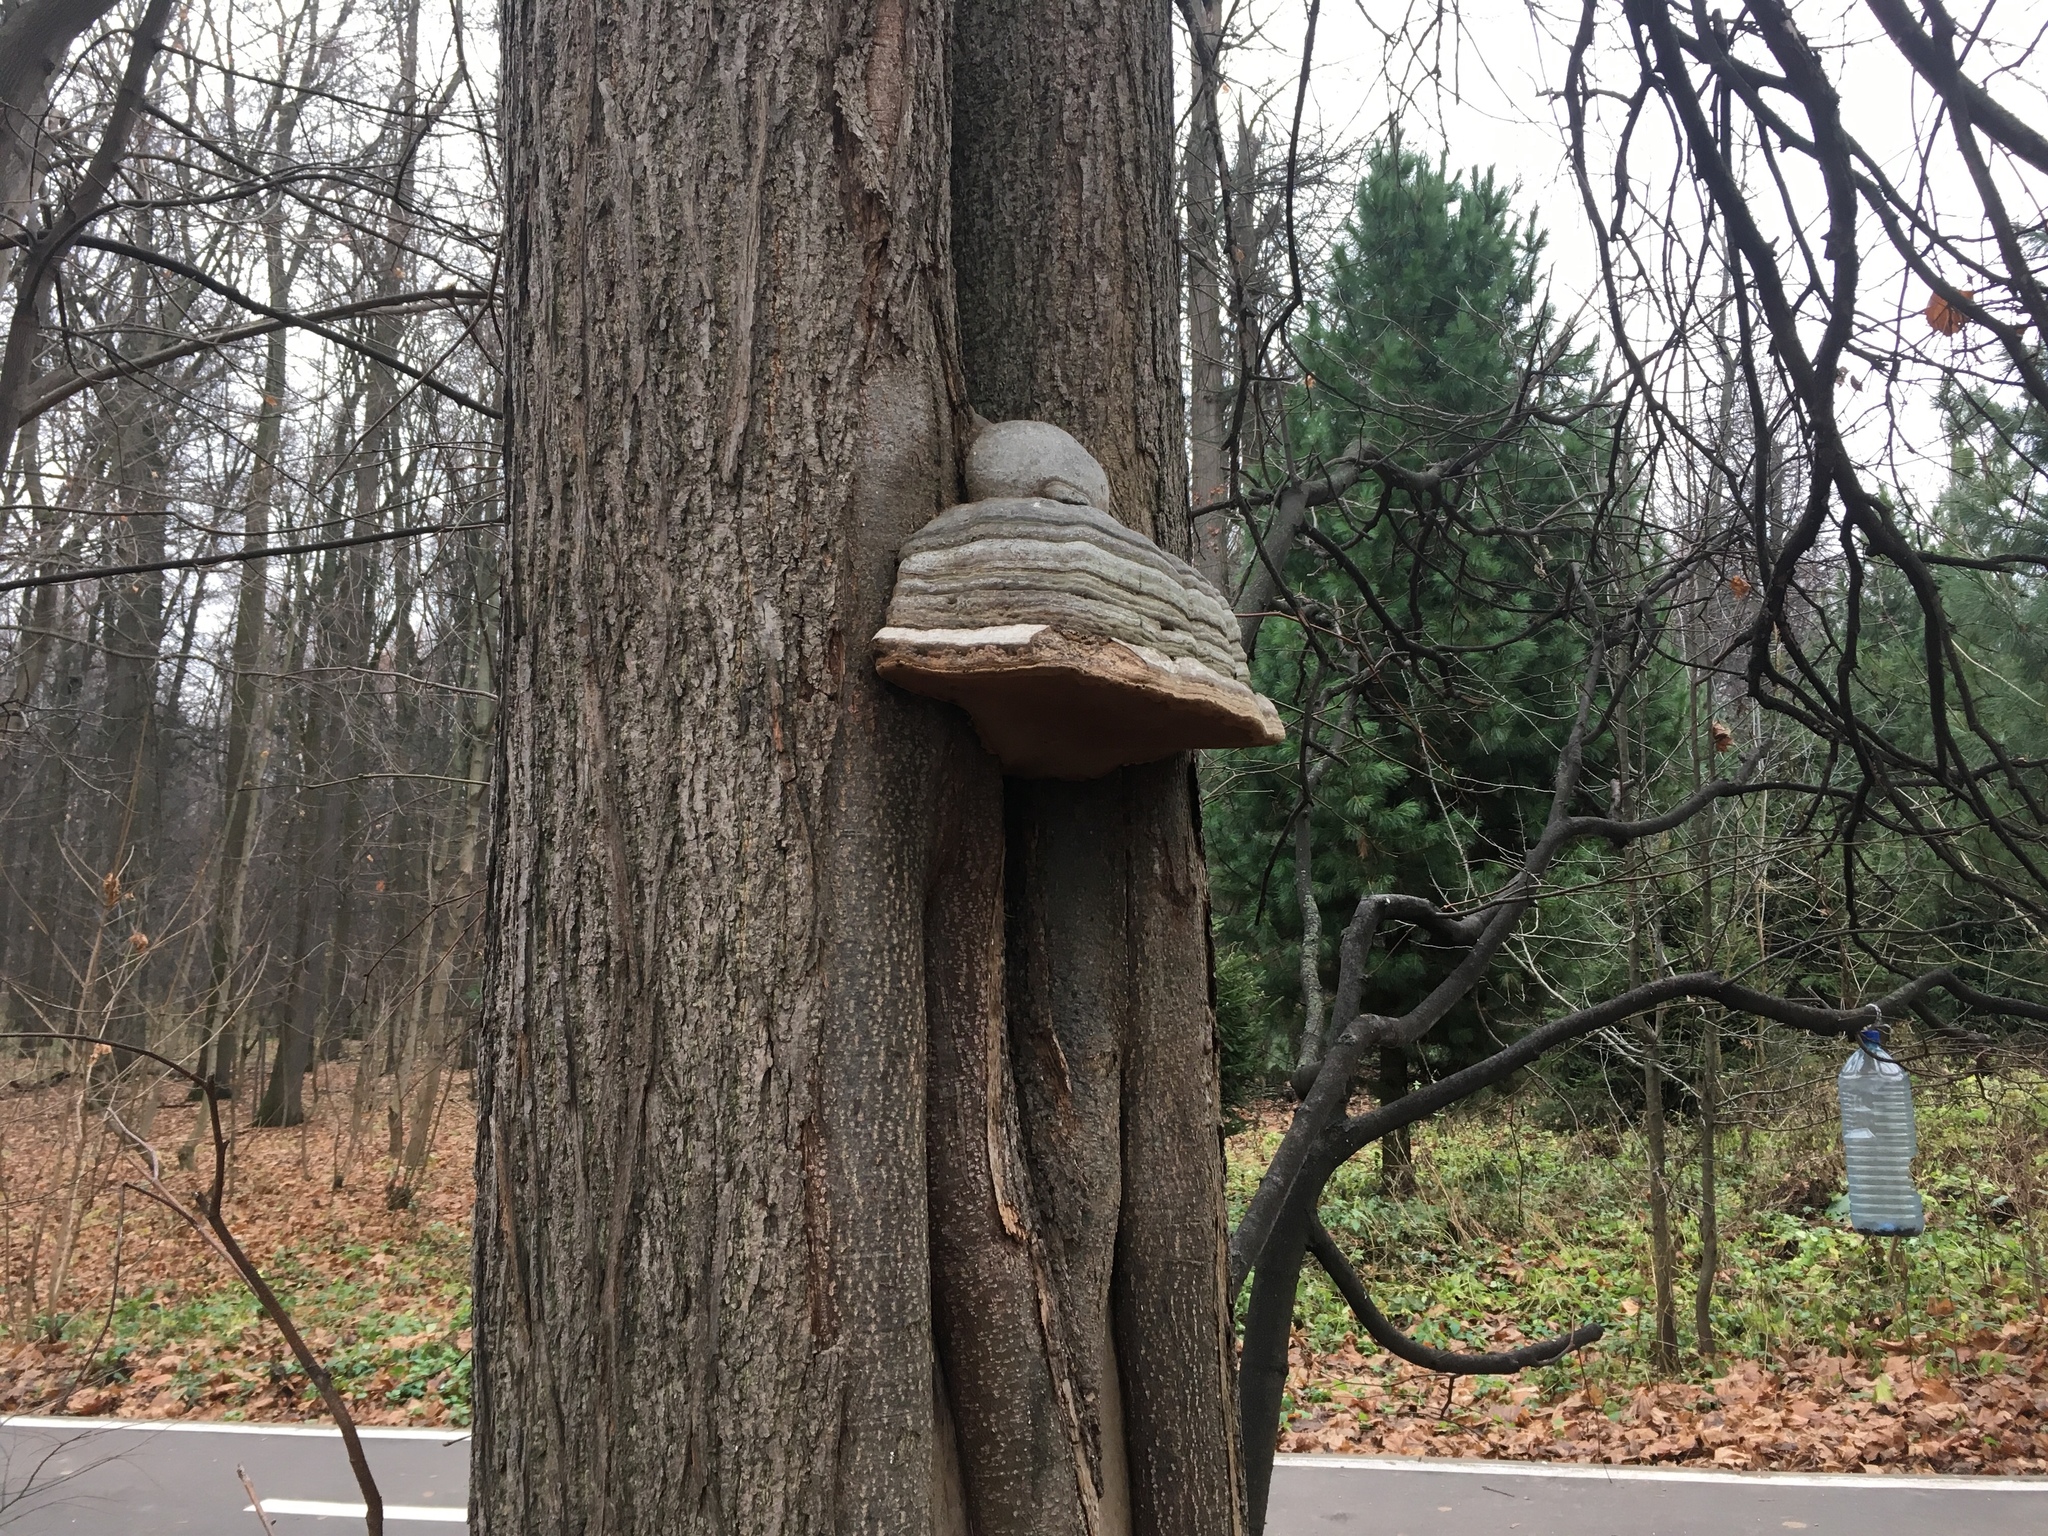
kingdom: Fungi
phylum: Basidiomycota
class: Agaricomycetes
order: Polyporales
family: Polyporaceae
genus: Fomes
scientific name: Fomes fomentarius
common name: Hoof fungus
